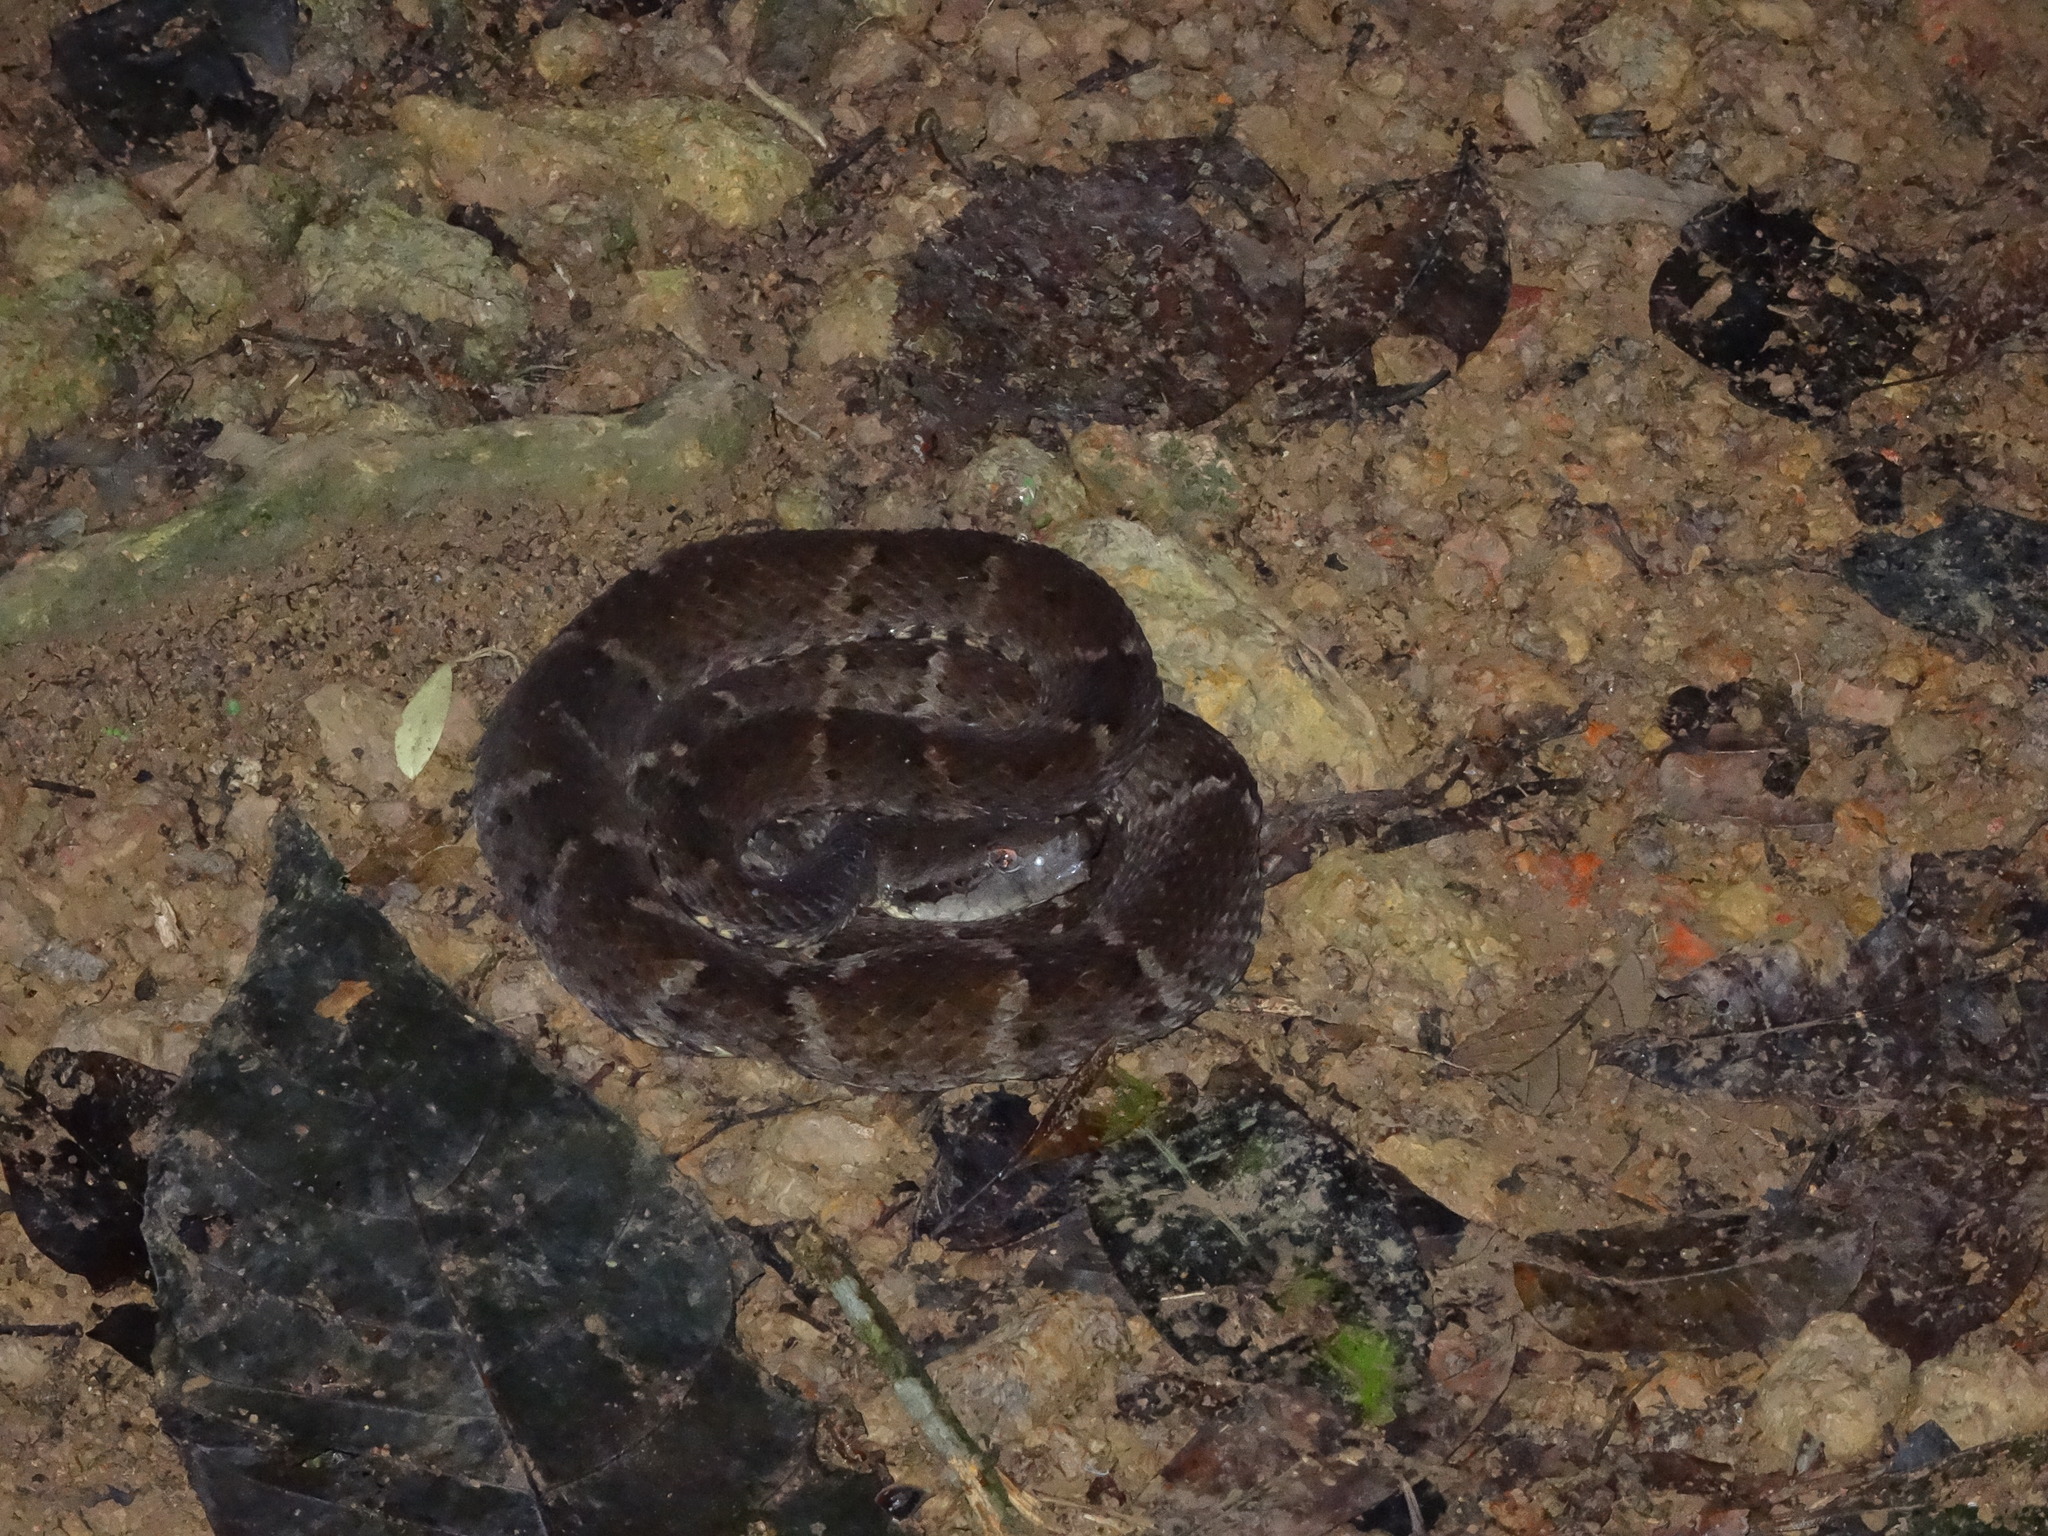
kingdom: Animalia
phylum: Chordata
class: Squamata
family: Viperidae
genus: Bothrops
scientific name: Bothrops atrox
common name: Common lancehead
